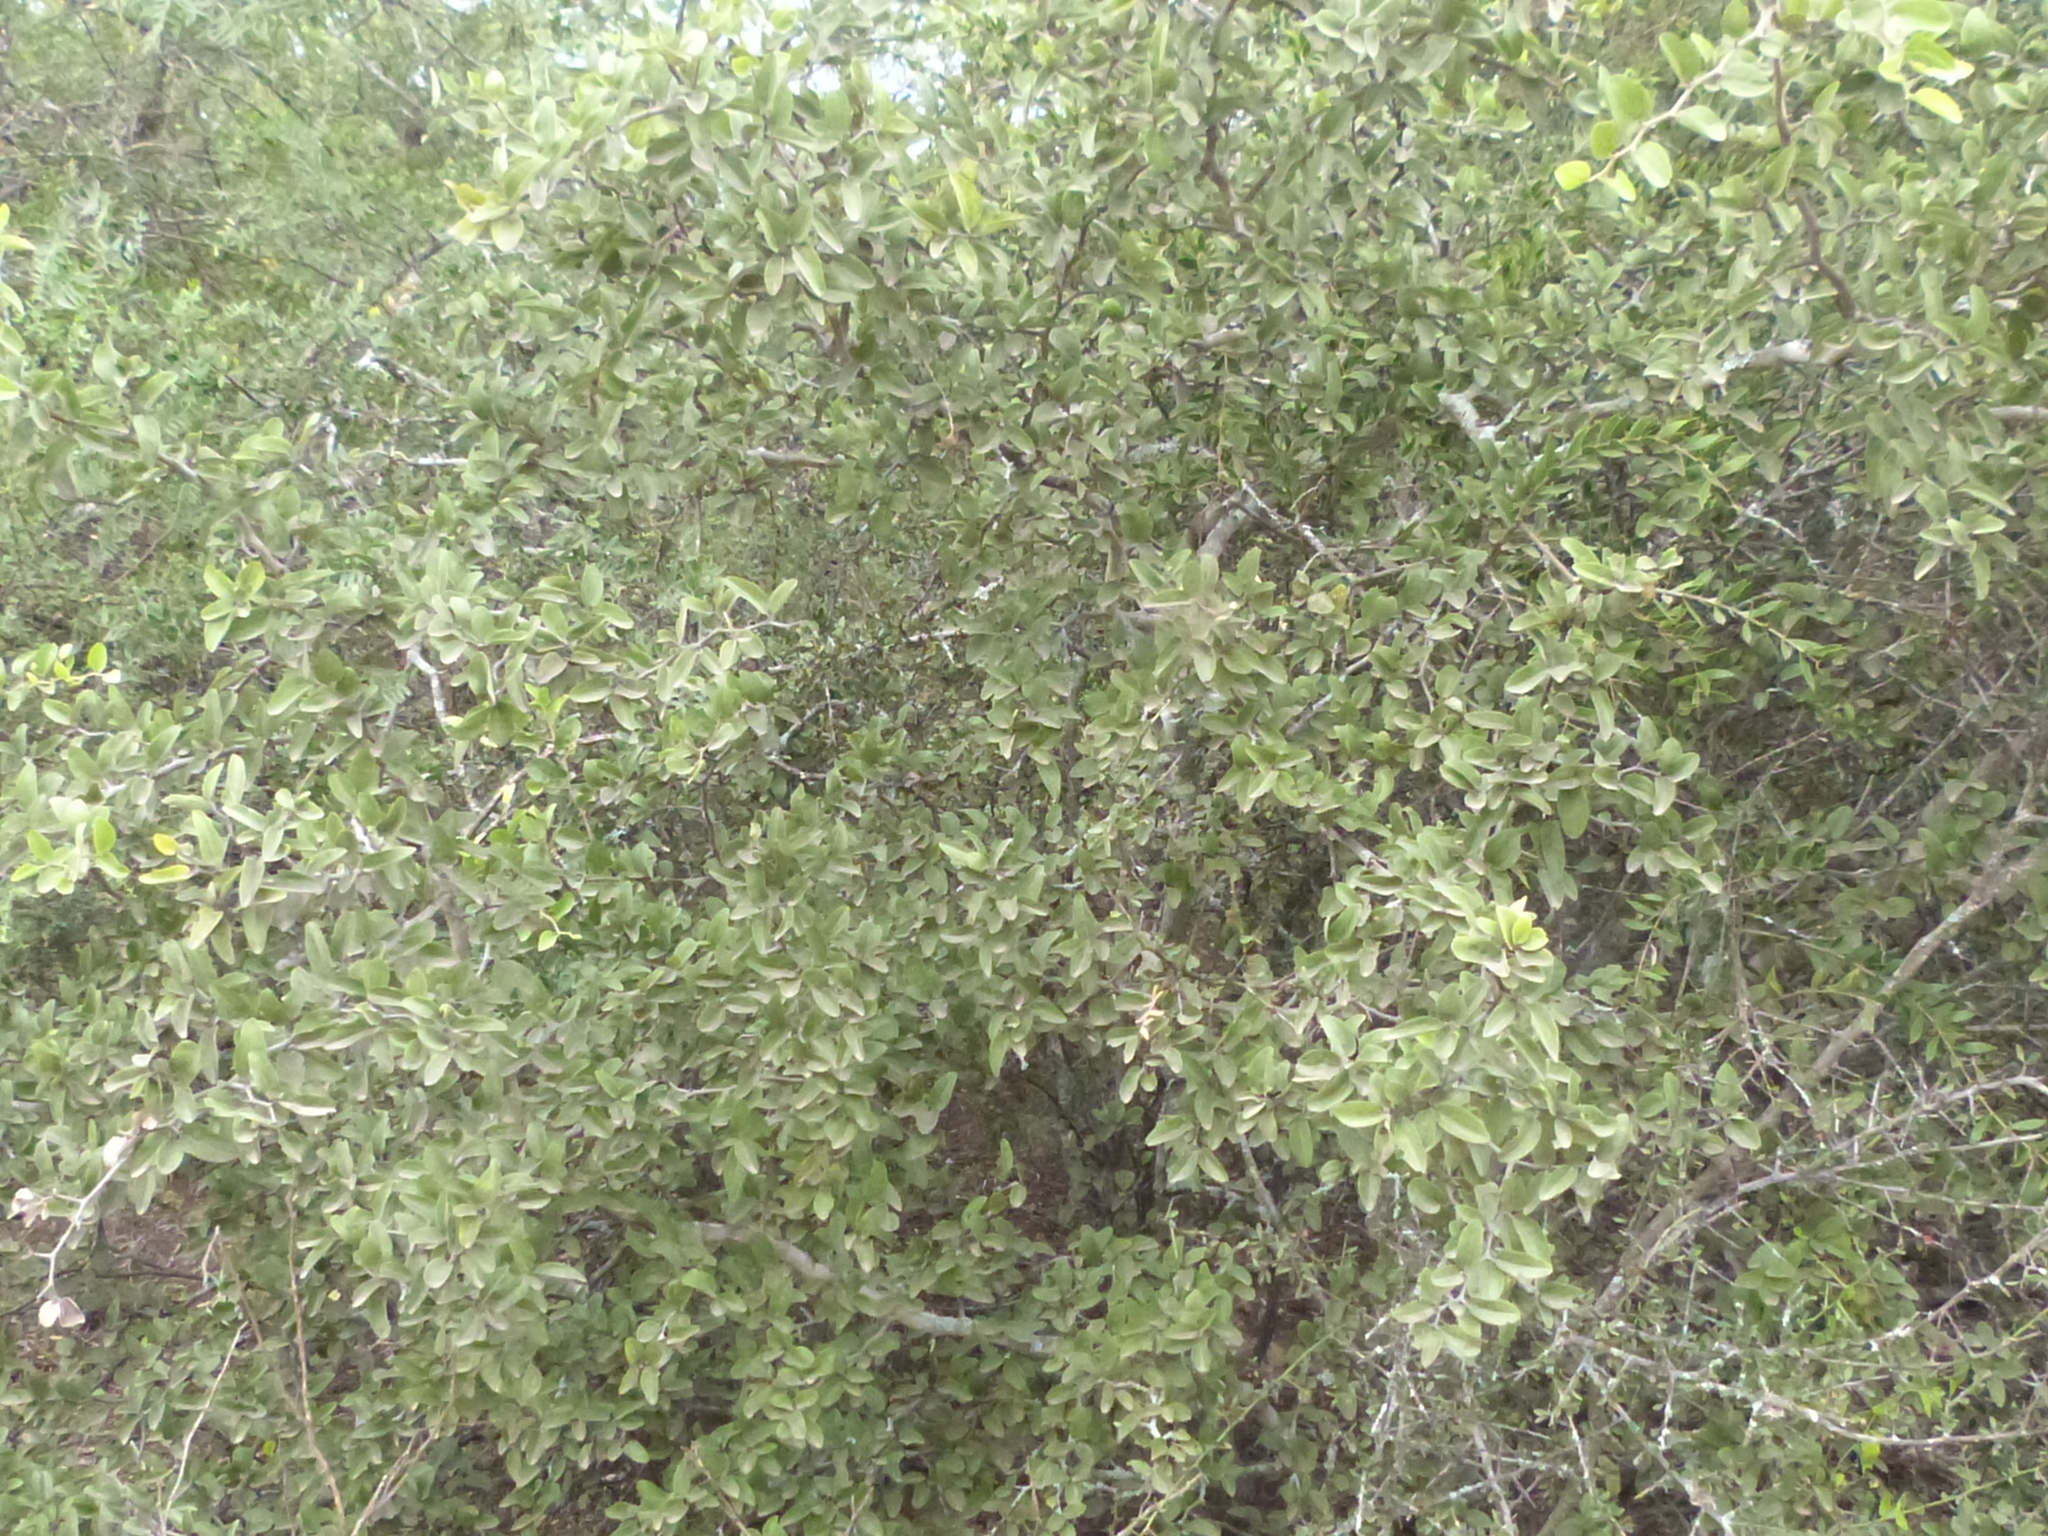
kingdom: Plantae
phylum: Tracheophyta
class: Magnoliopsida
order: Rosales
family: Rhamnaceae
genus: Sarcomphalus
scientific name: Sarcomphalus mistol
